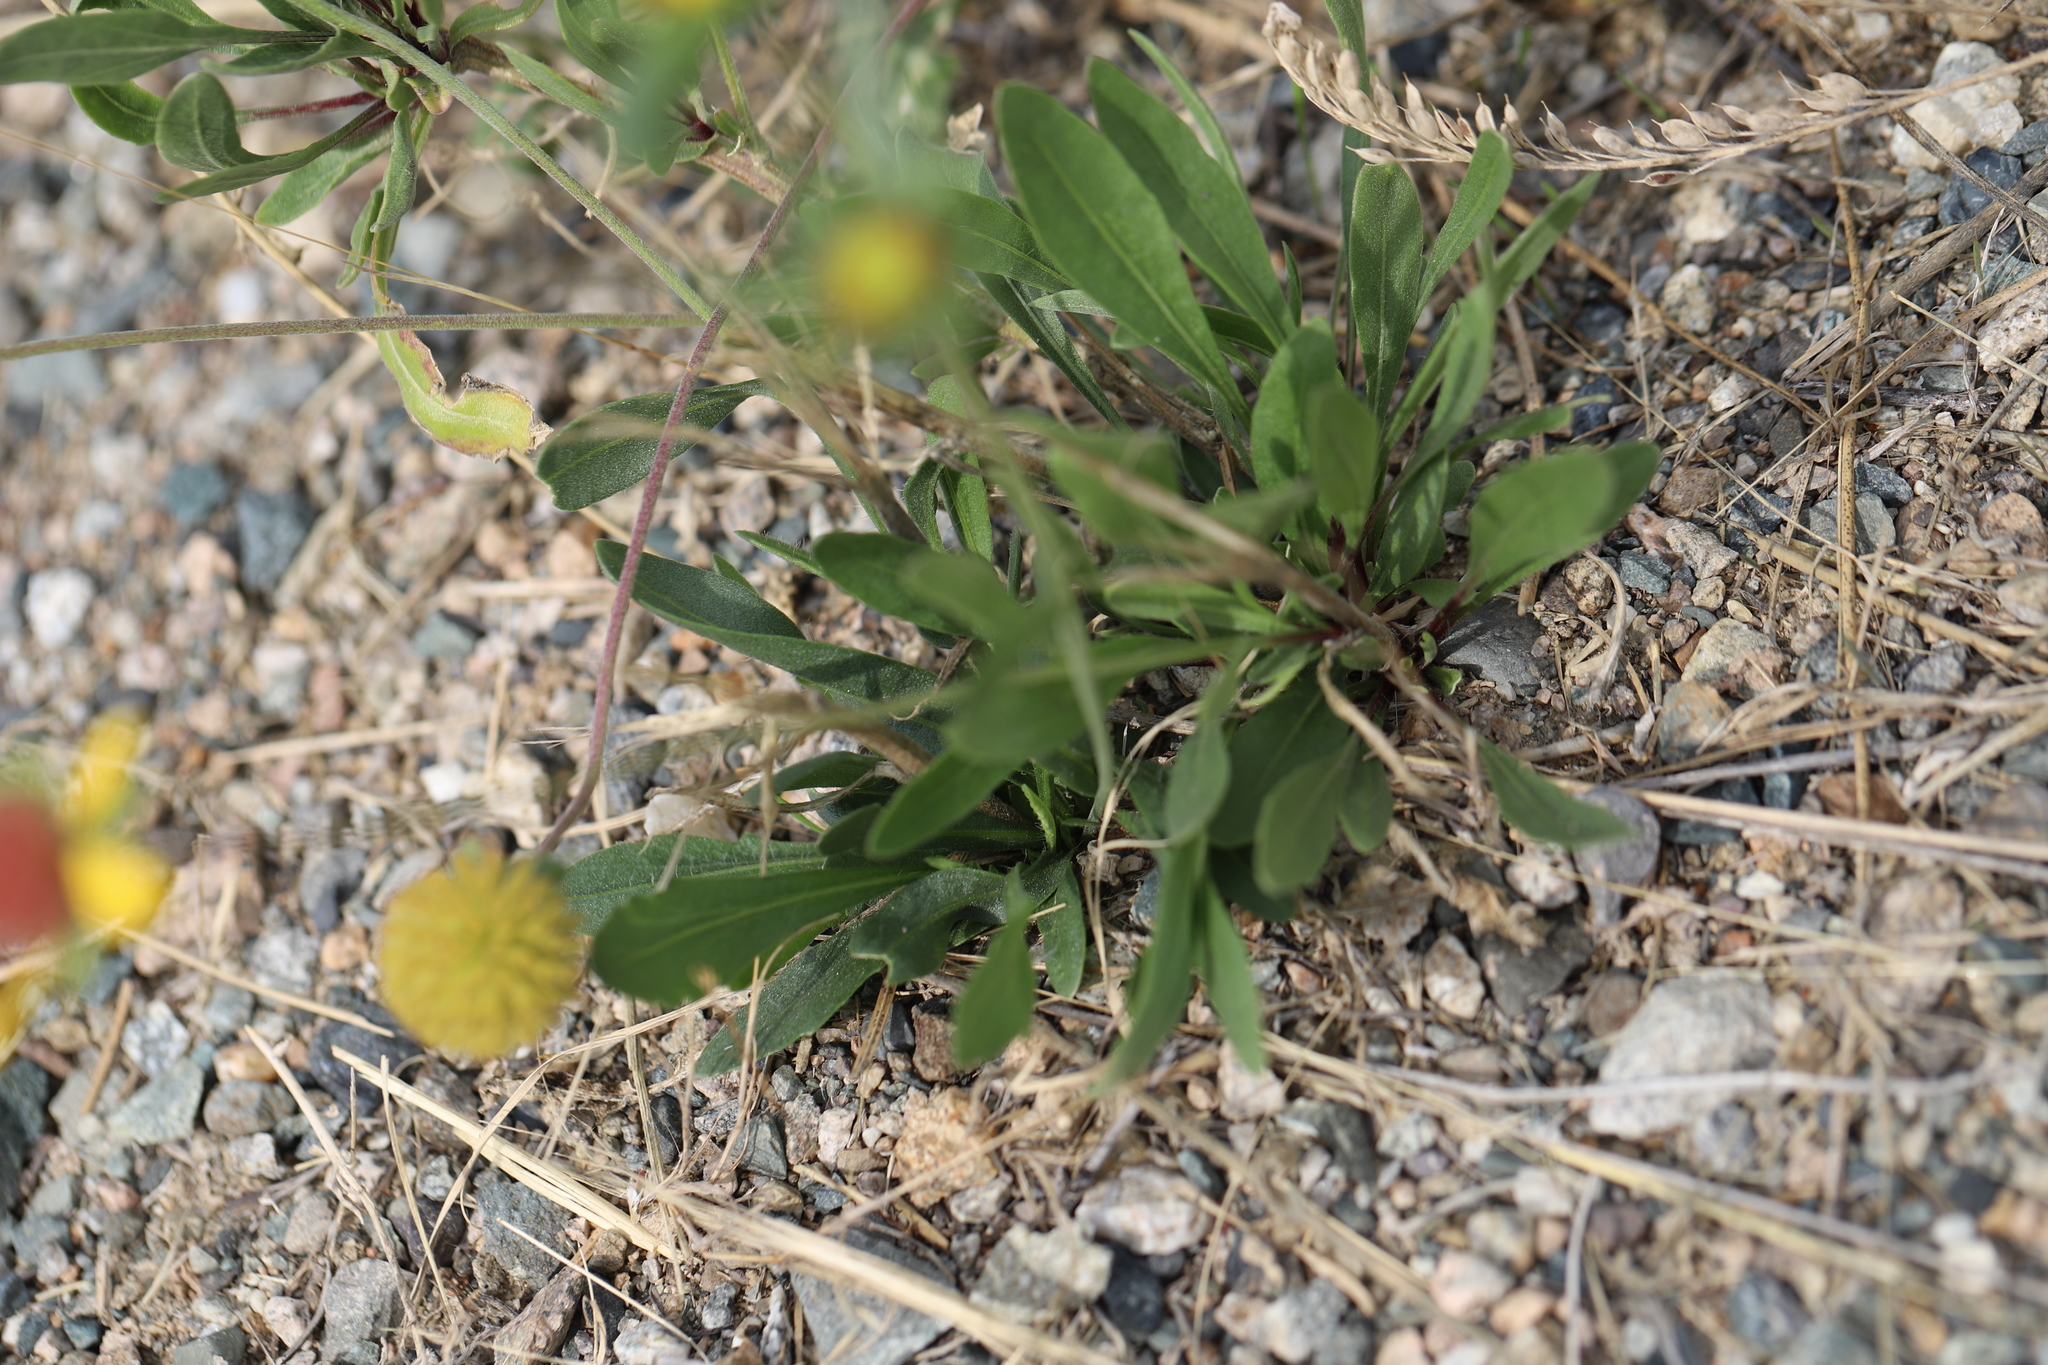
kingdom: Plantae
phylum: Tracheophyta
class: Magnoliopsida
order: Asterales
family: Asteraceae
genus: Gaillardia
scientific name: Gaillardia aristata
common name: Blanket-flower
